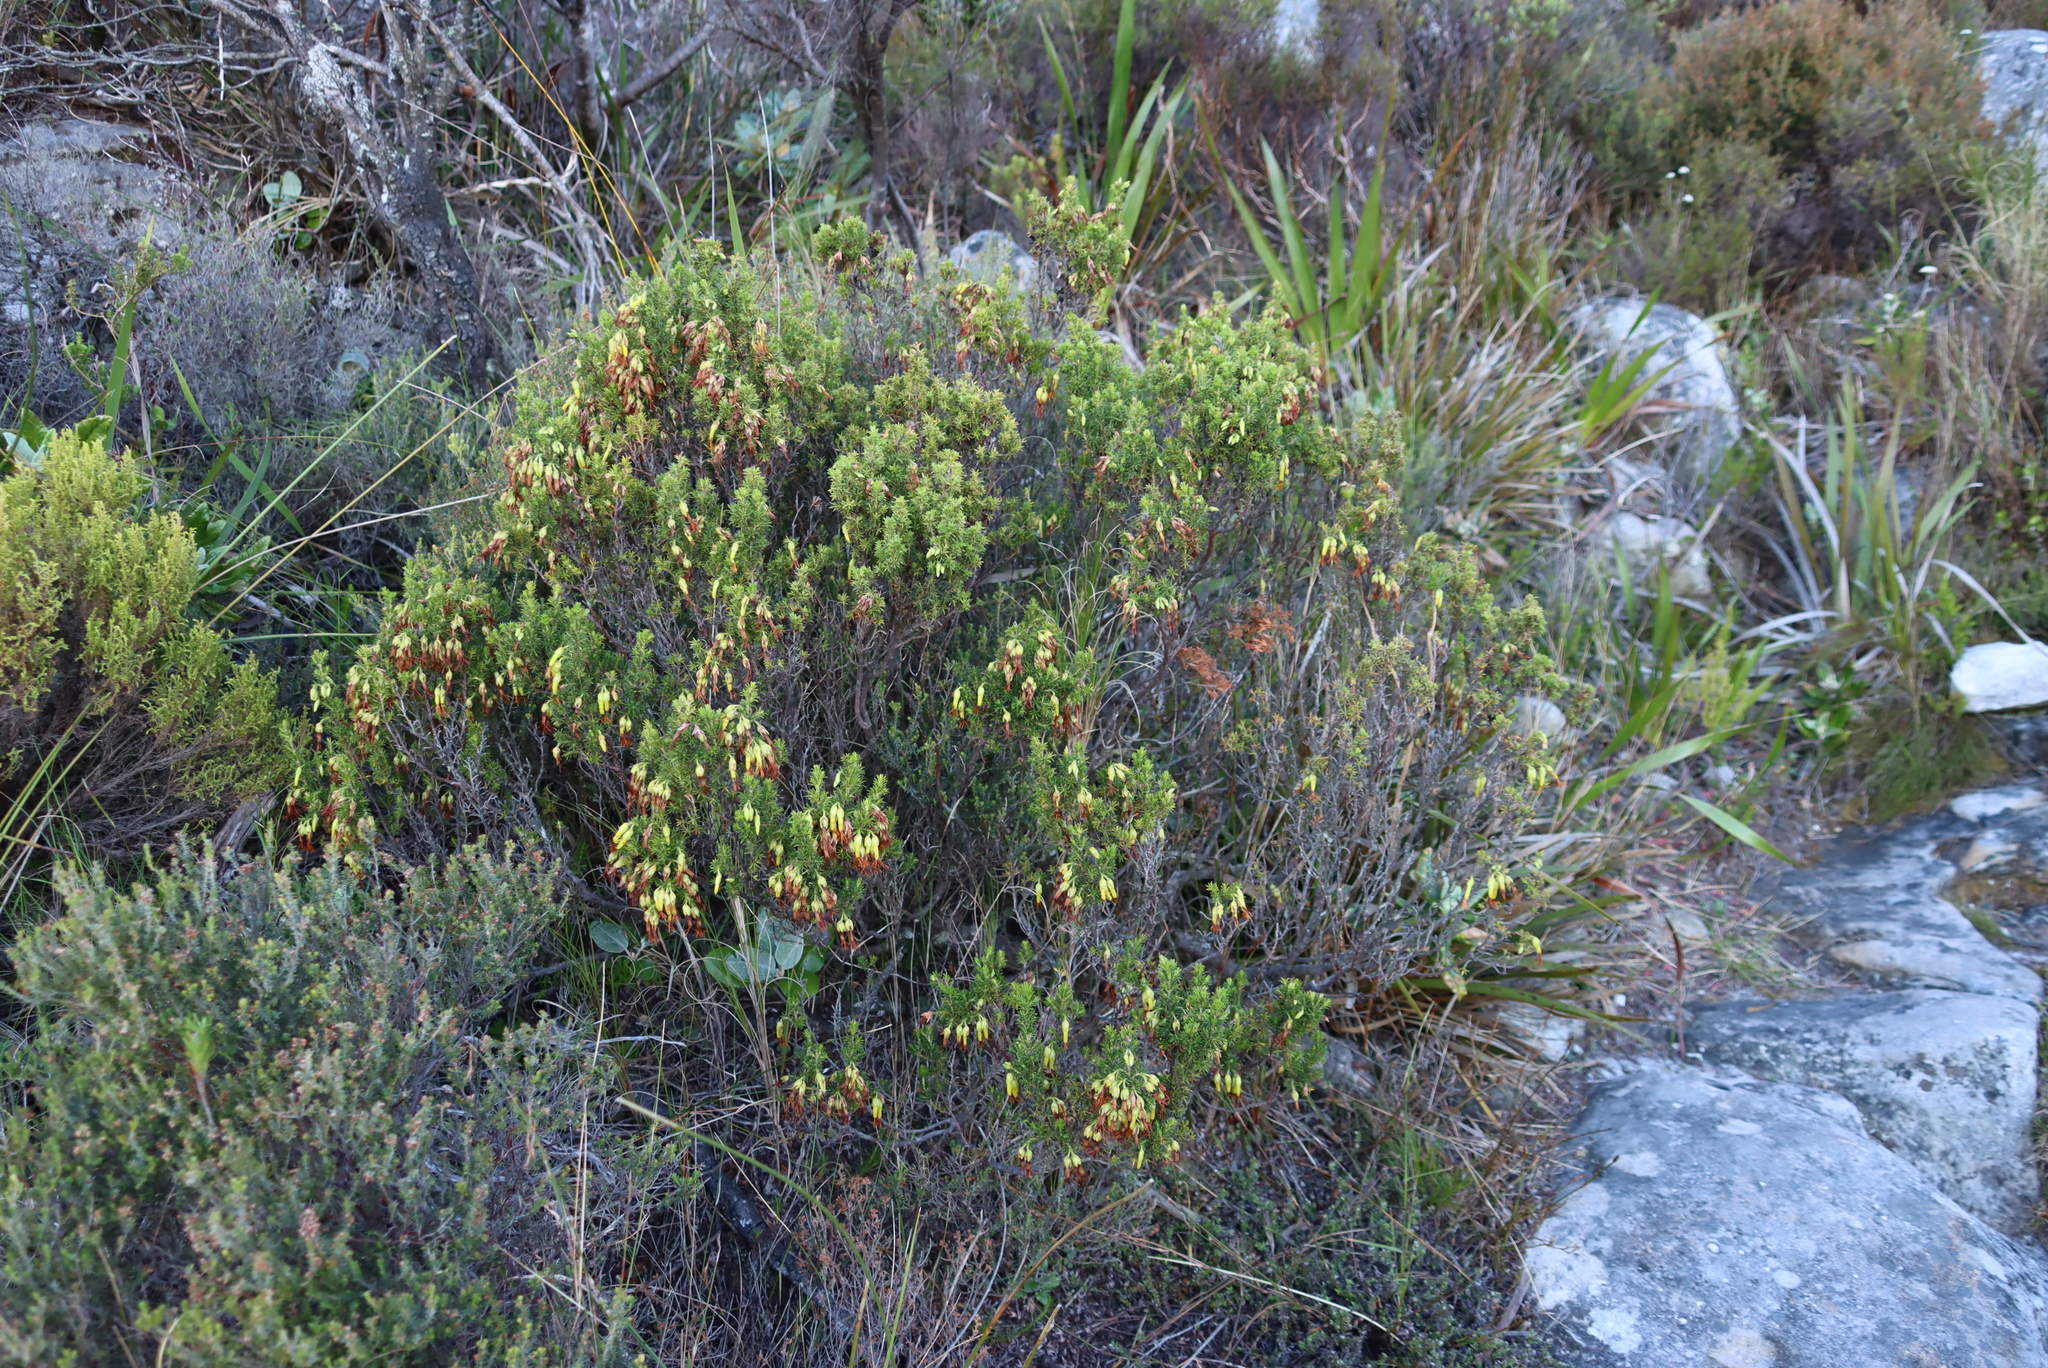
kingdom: Plantae
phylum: Tracheophyta
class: Magnoliopsida
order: Ericales
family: Ericaceae
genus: Erica
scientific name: Erica coccinea
